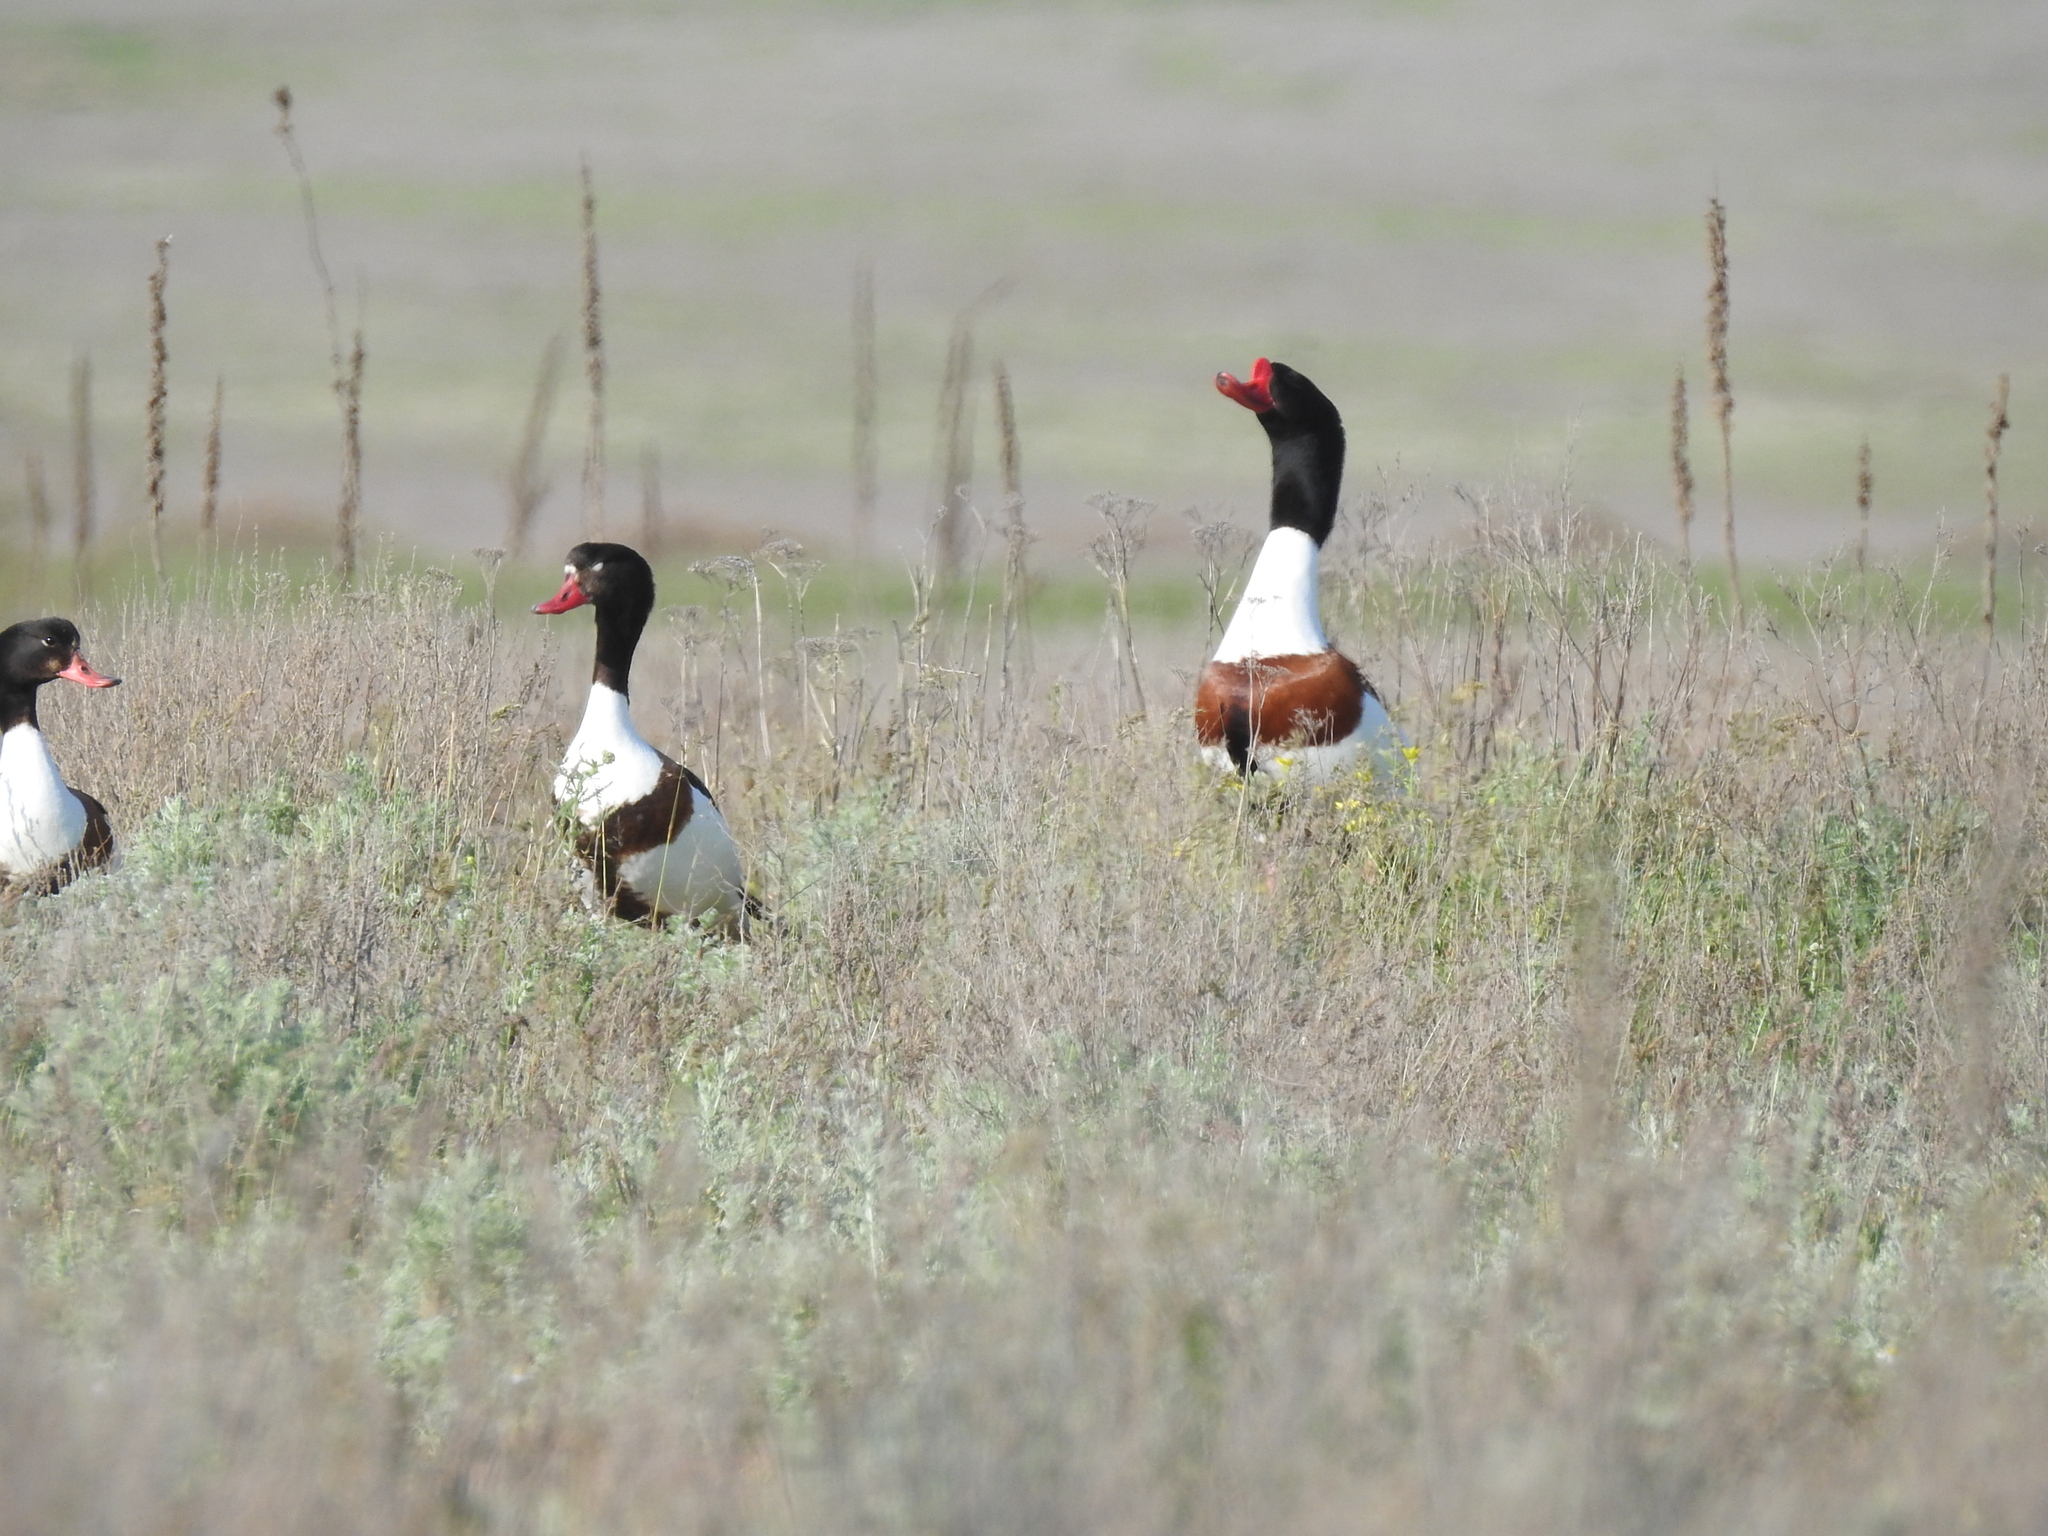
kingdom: Animalia
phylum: Chordata
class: Aves
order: Anseriformes
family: Anatidae
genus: Tadorna
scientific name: Tadorna tadorna
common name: Common shelduck
